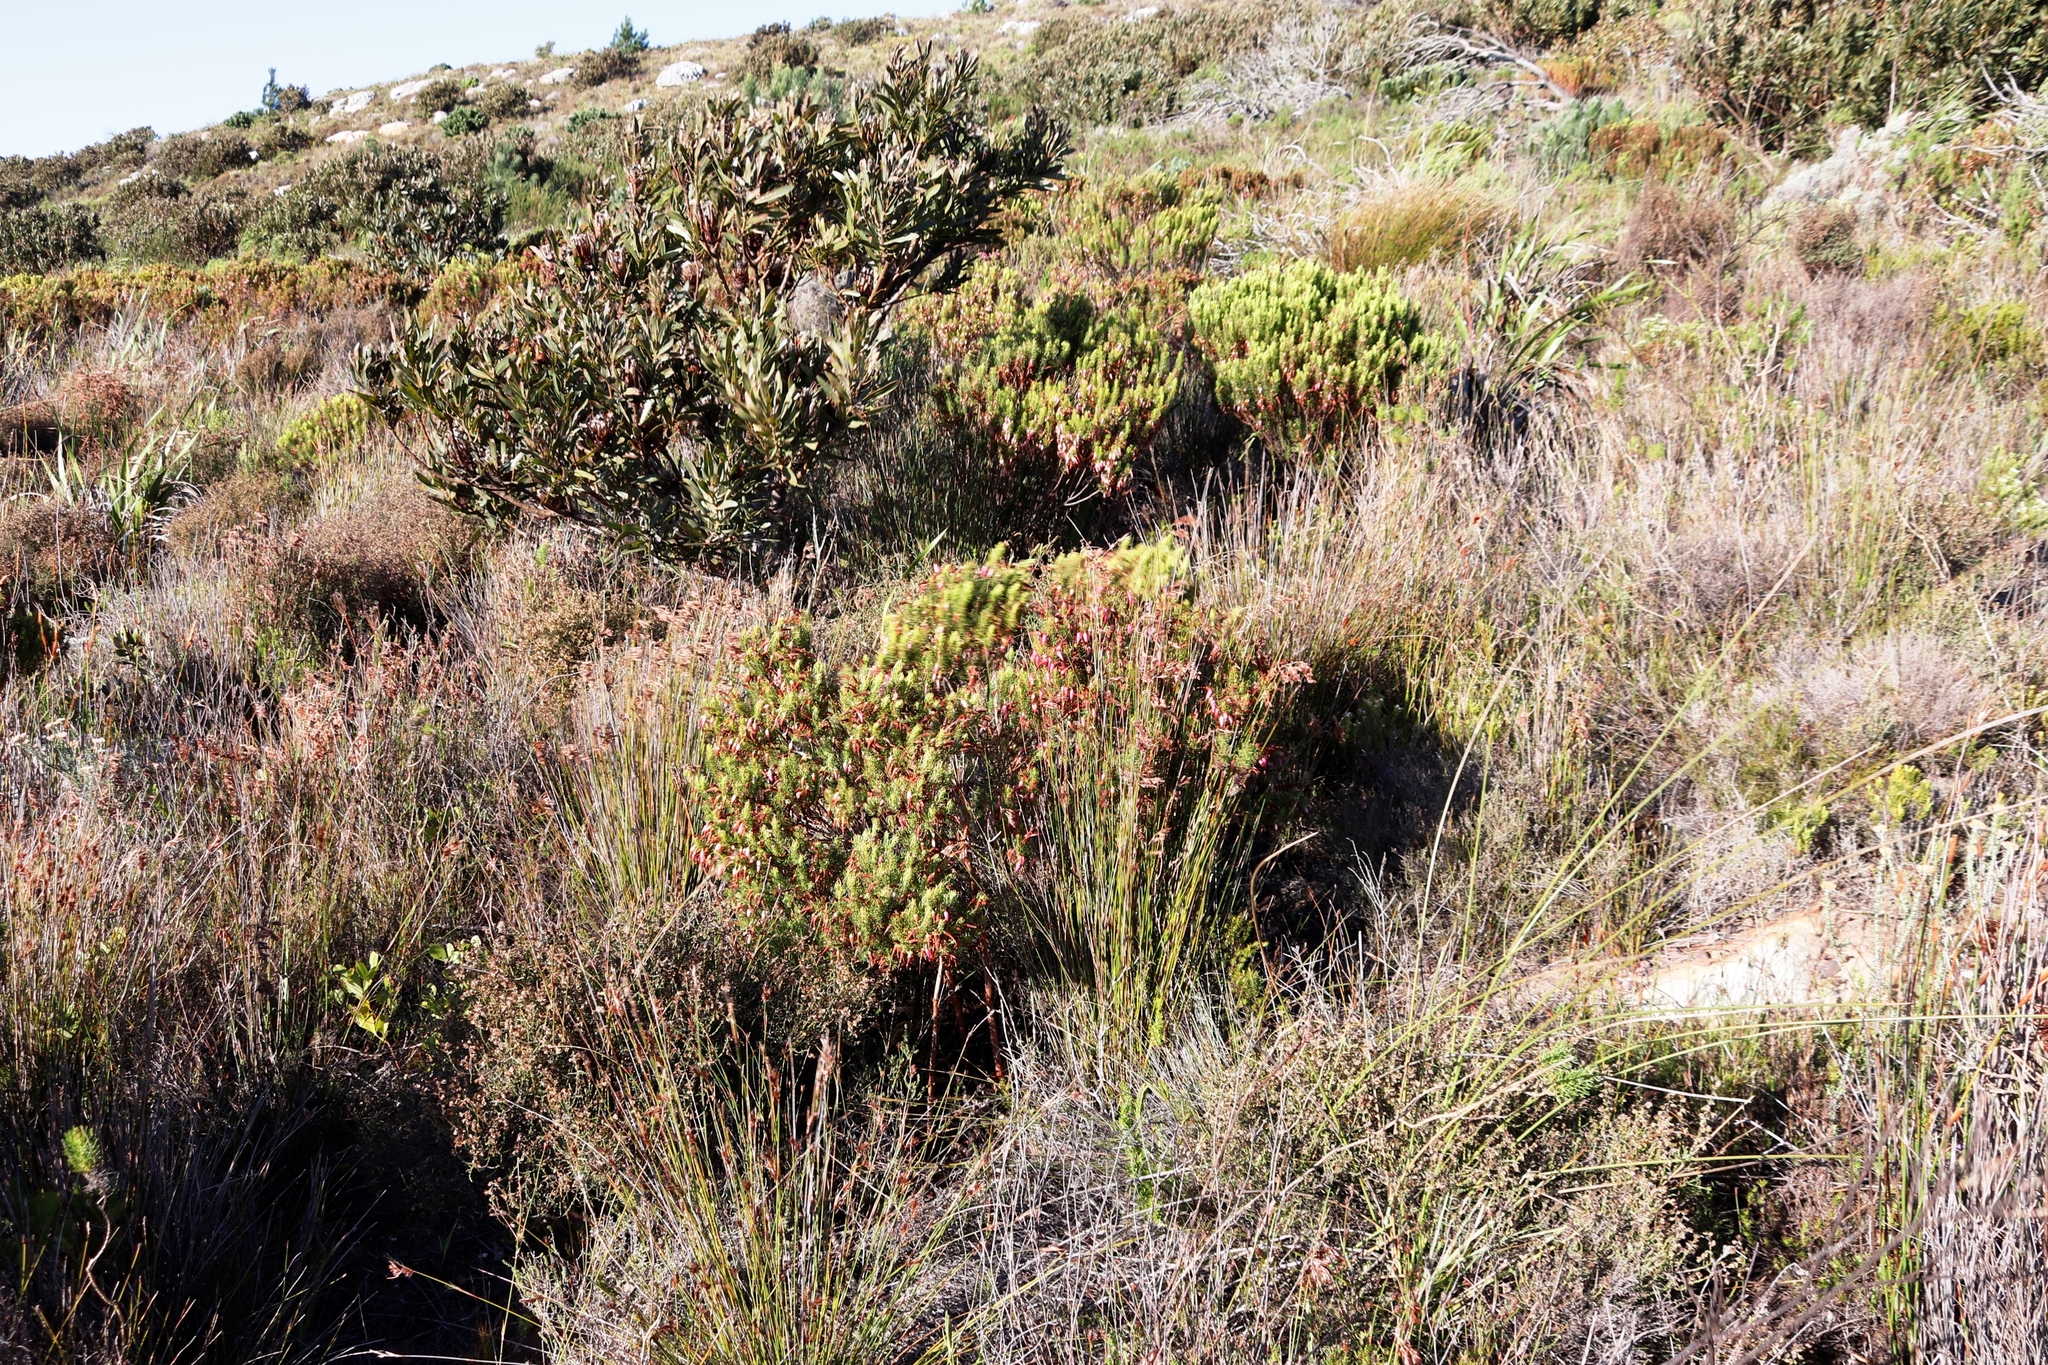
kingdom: Plantae
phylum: Tracheophyta
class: Magnoliopsida
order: Ericales
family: Ericaceae
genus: Erica
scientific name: Erica plukenetii
